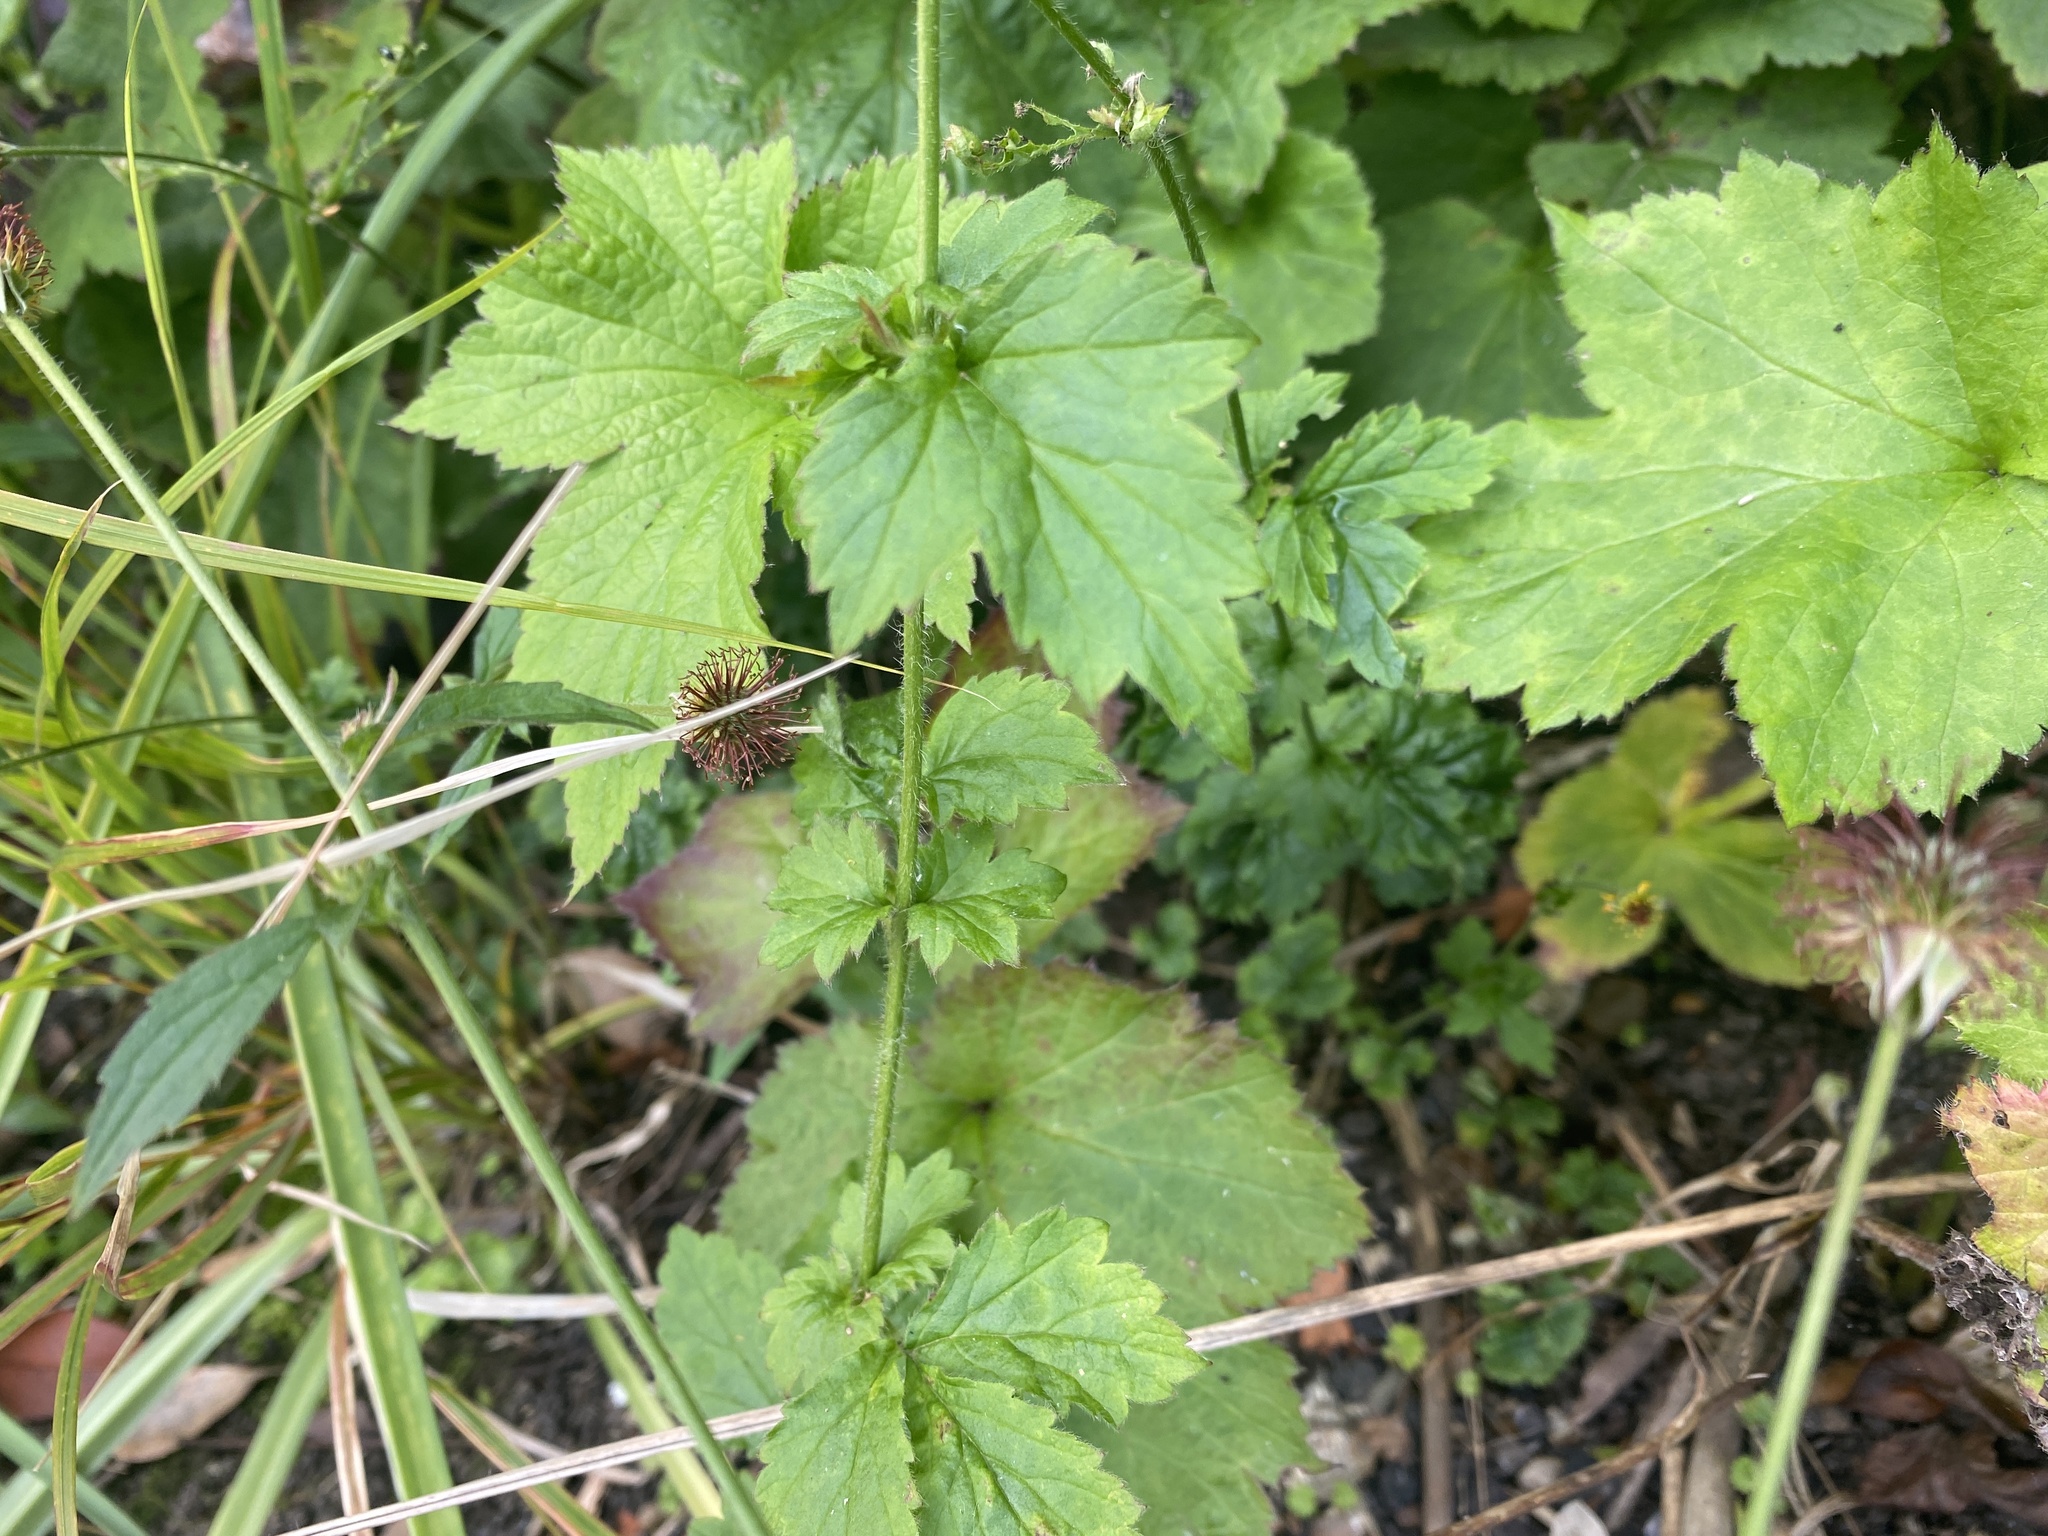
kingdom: Plantae
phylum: Tracheophyta
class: Magnoliopsida
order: Rosales
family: Rosaceae
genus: Geum
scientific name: Geum urbanum
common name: Wood avens
